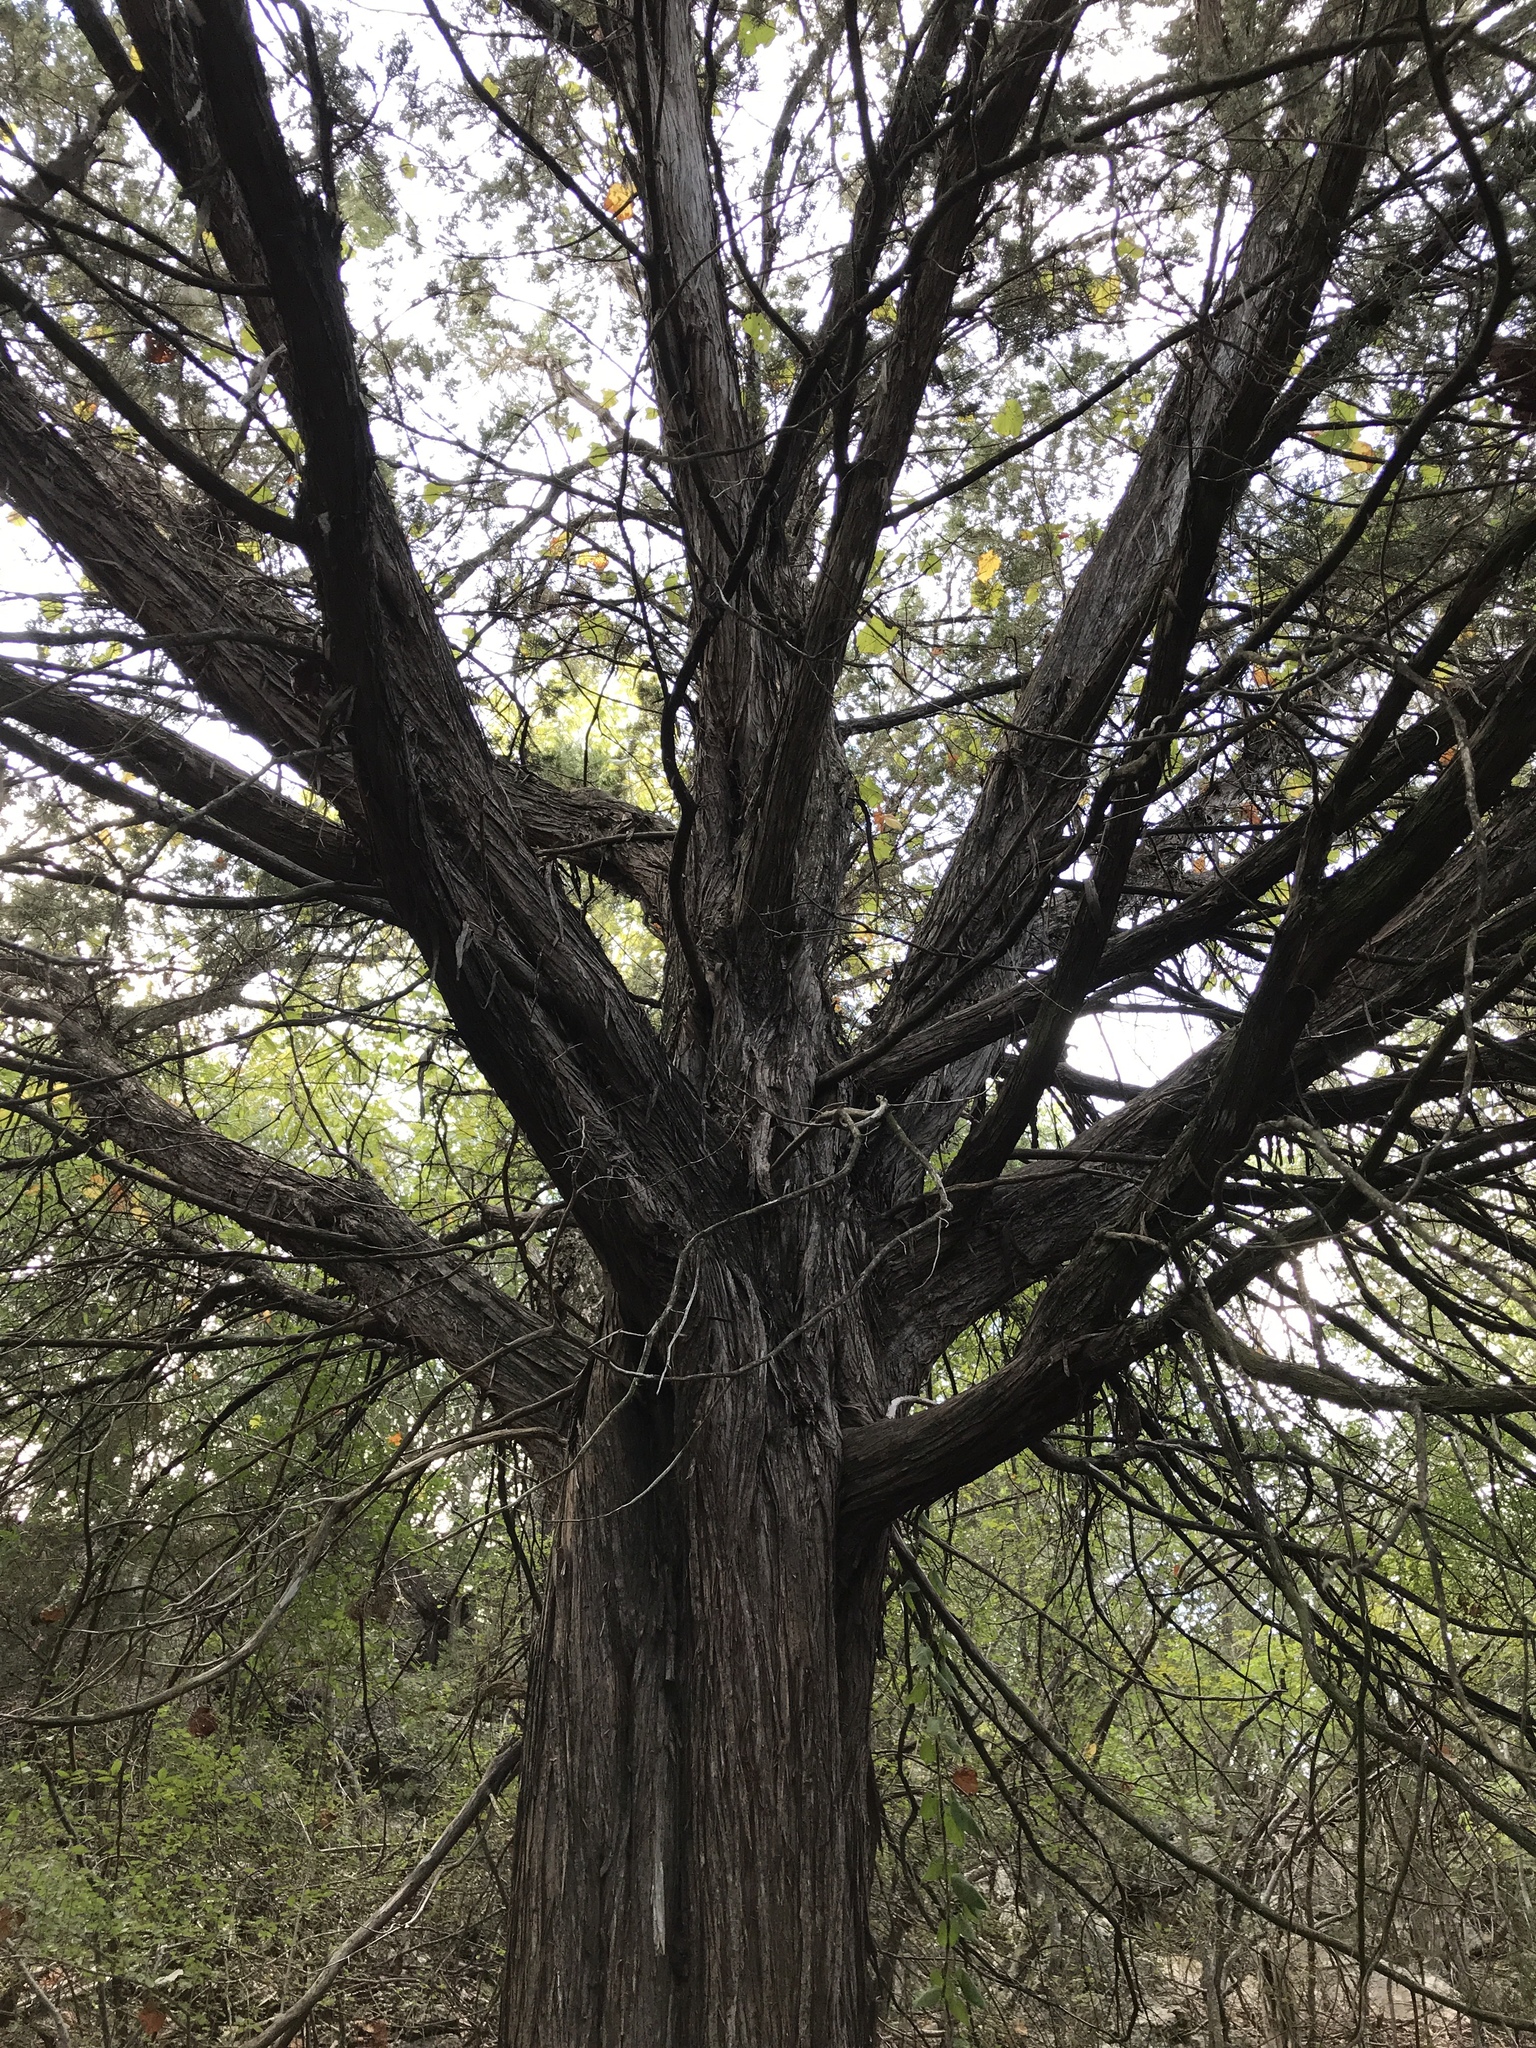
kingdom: Plantae
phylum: Tracheophyta
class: Pinopsida
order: Pinales
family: Cupressaceae
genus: Juniperus
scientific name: Juniperus ashei
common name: Mexican juniper
